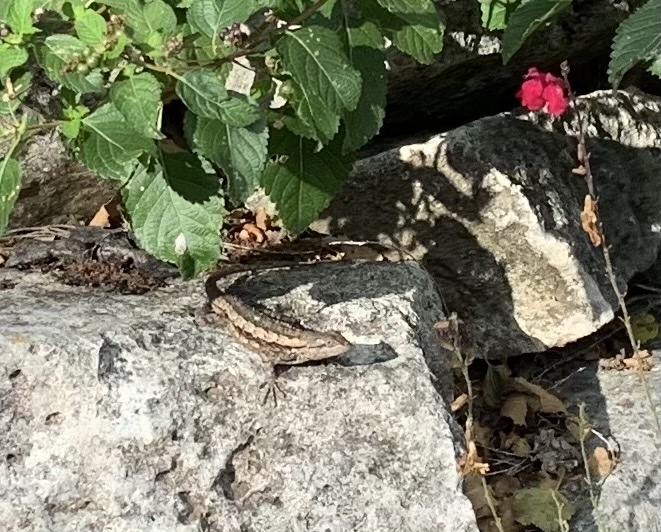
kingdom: Animalia
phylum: Chordata
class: Squamata
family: Phrynosomatidae
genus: Sceloporus
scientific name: Sceloporus olivaceus
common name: Texas spiny lizard
